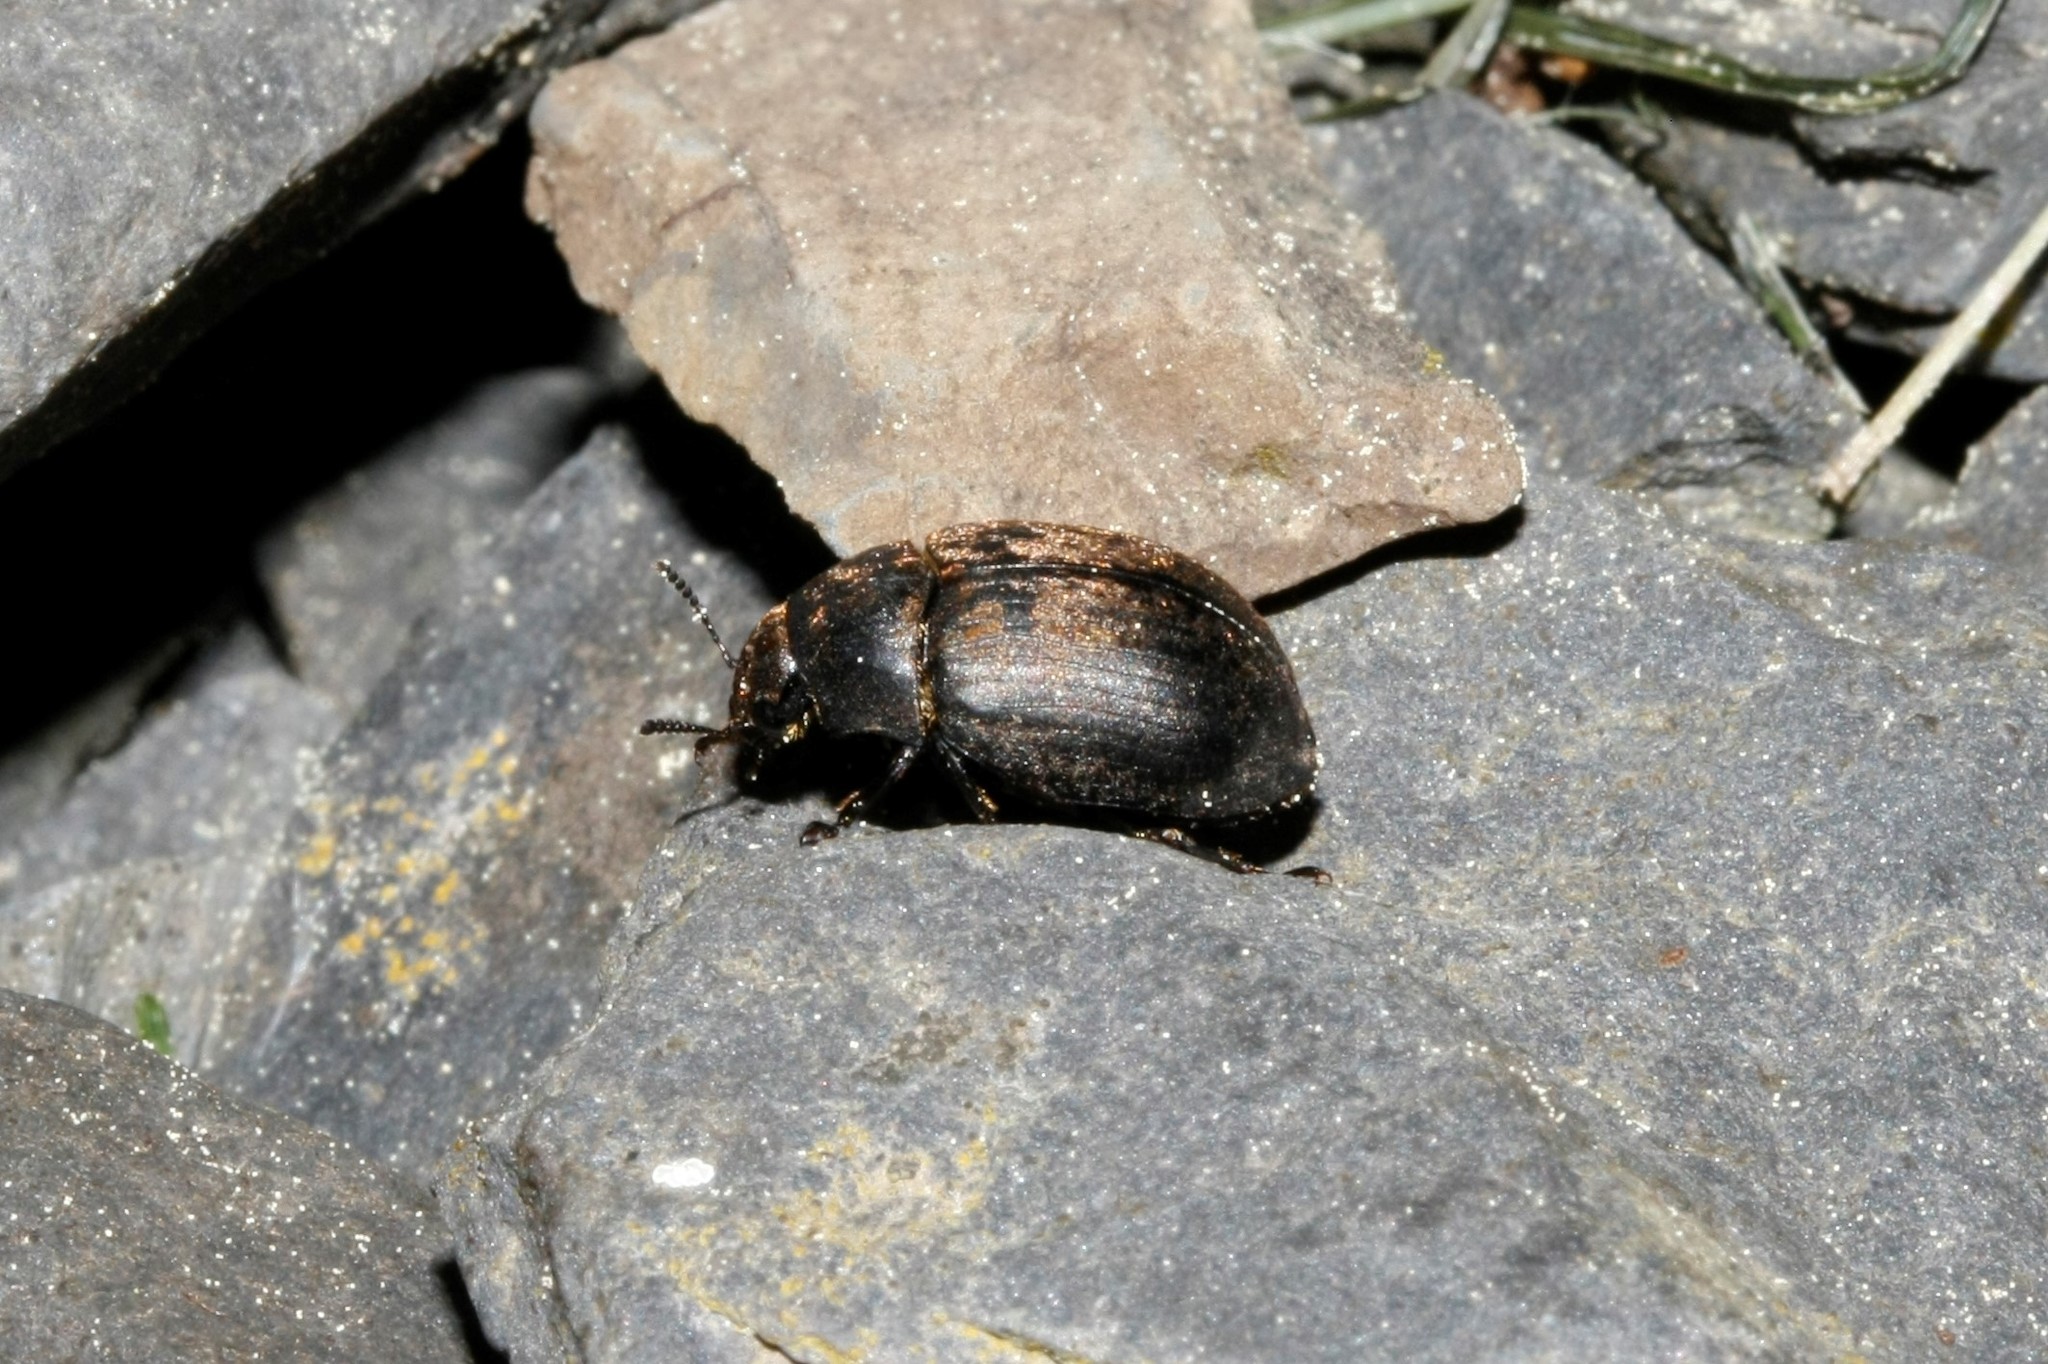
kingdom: Animalia
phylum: Arthropoda
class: Insecta
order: Coleoptera
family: Byrrhidae
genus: Byrrhus
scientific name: Byrrhus pilula
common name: Pill beetle
